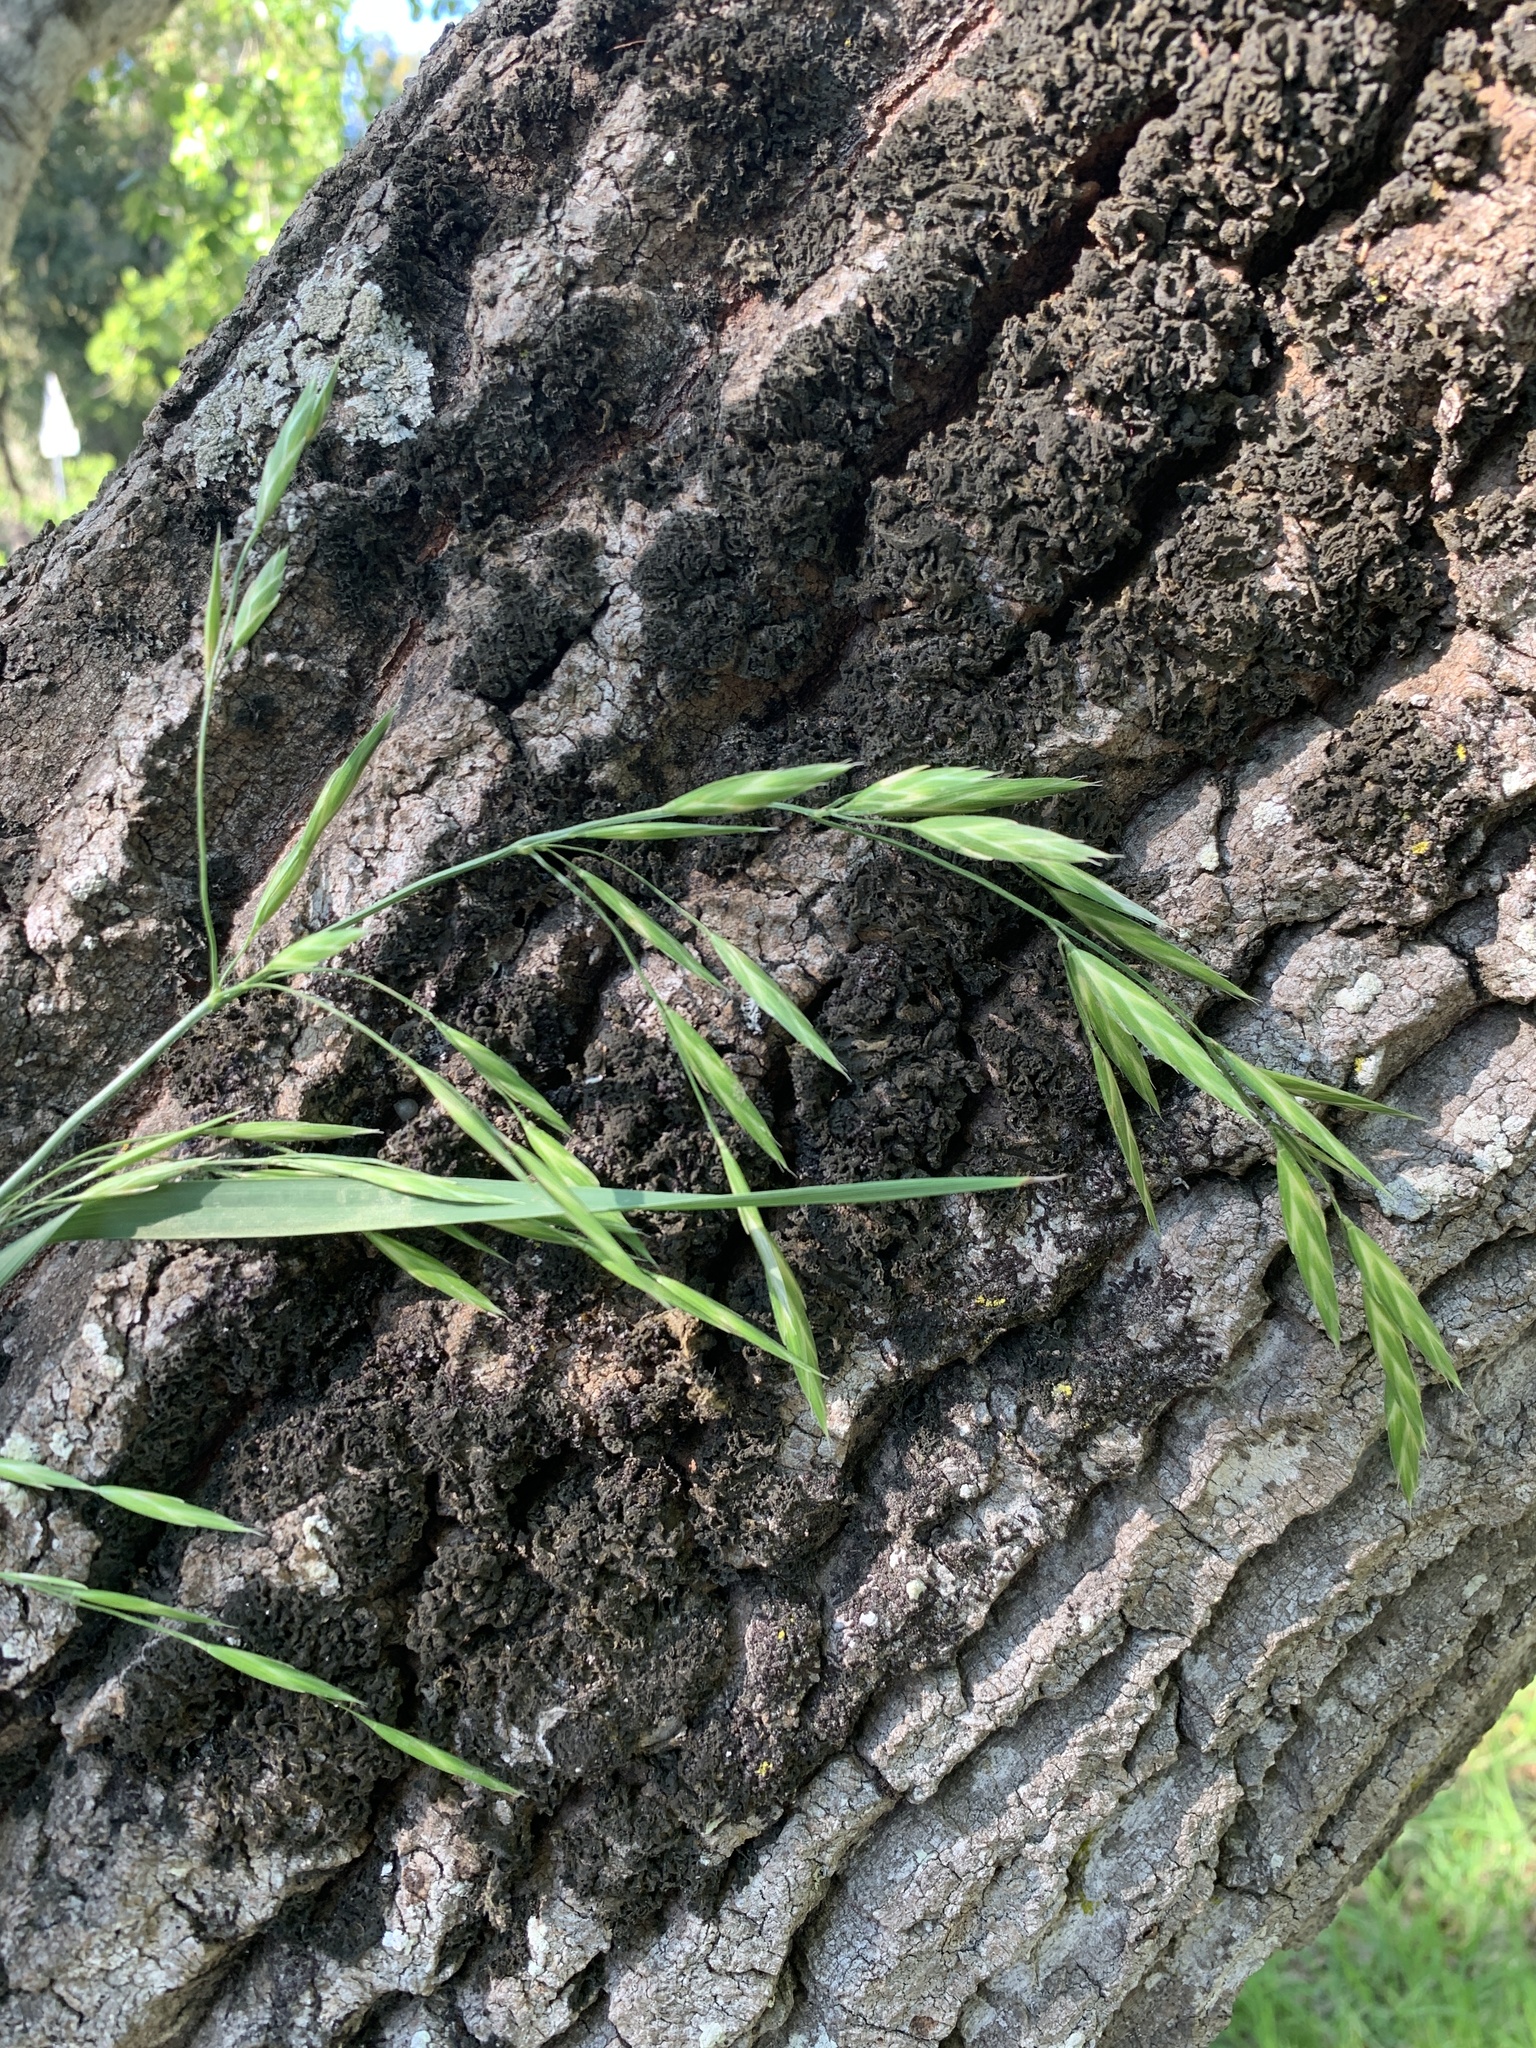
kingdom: Plantae
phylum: Tracheophyta
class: Liliopsida
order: Poales
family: Poaceae
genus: Bromus
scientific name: Bromus catharticus
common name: Rescuegrass
